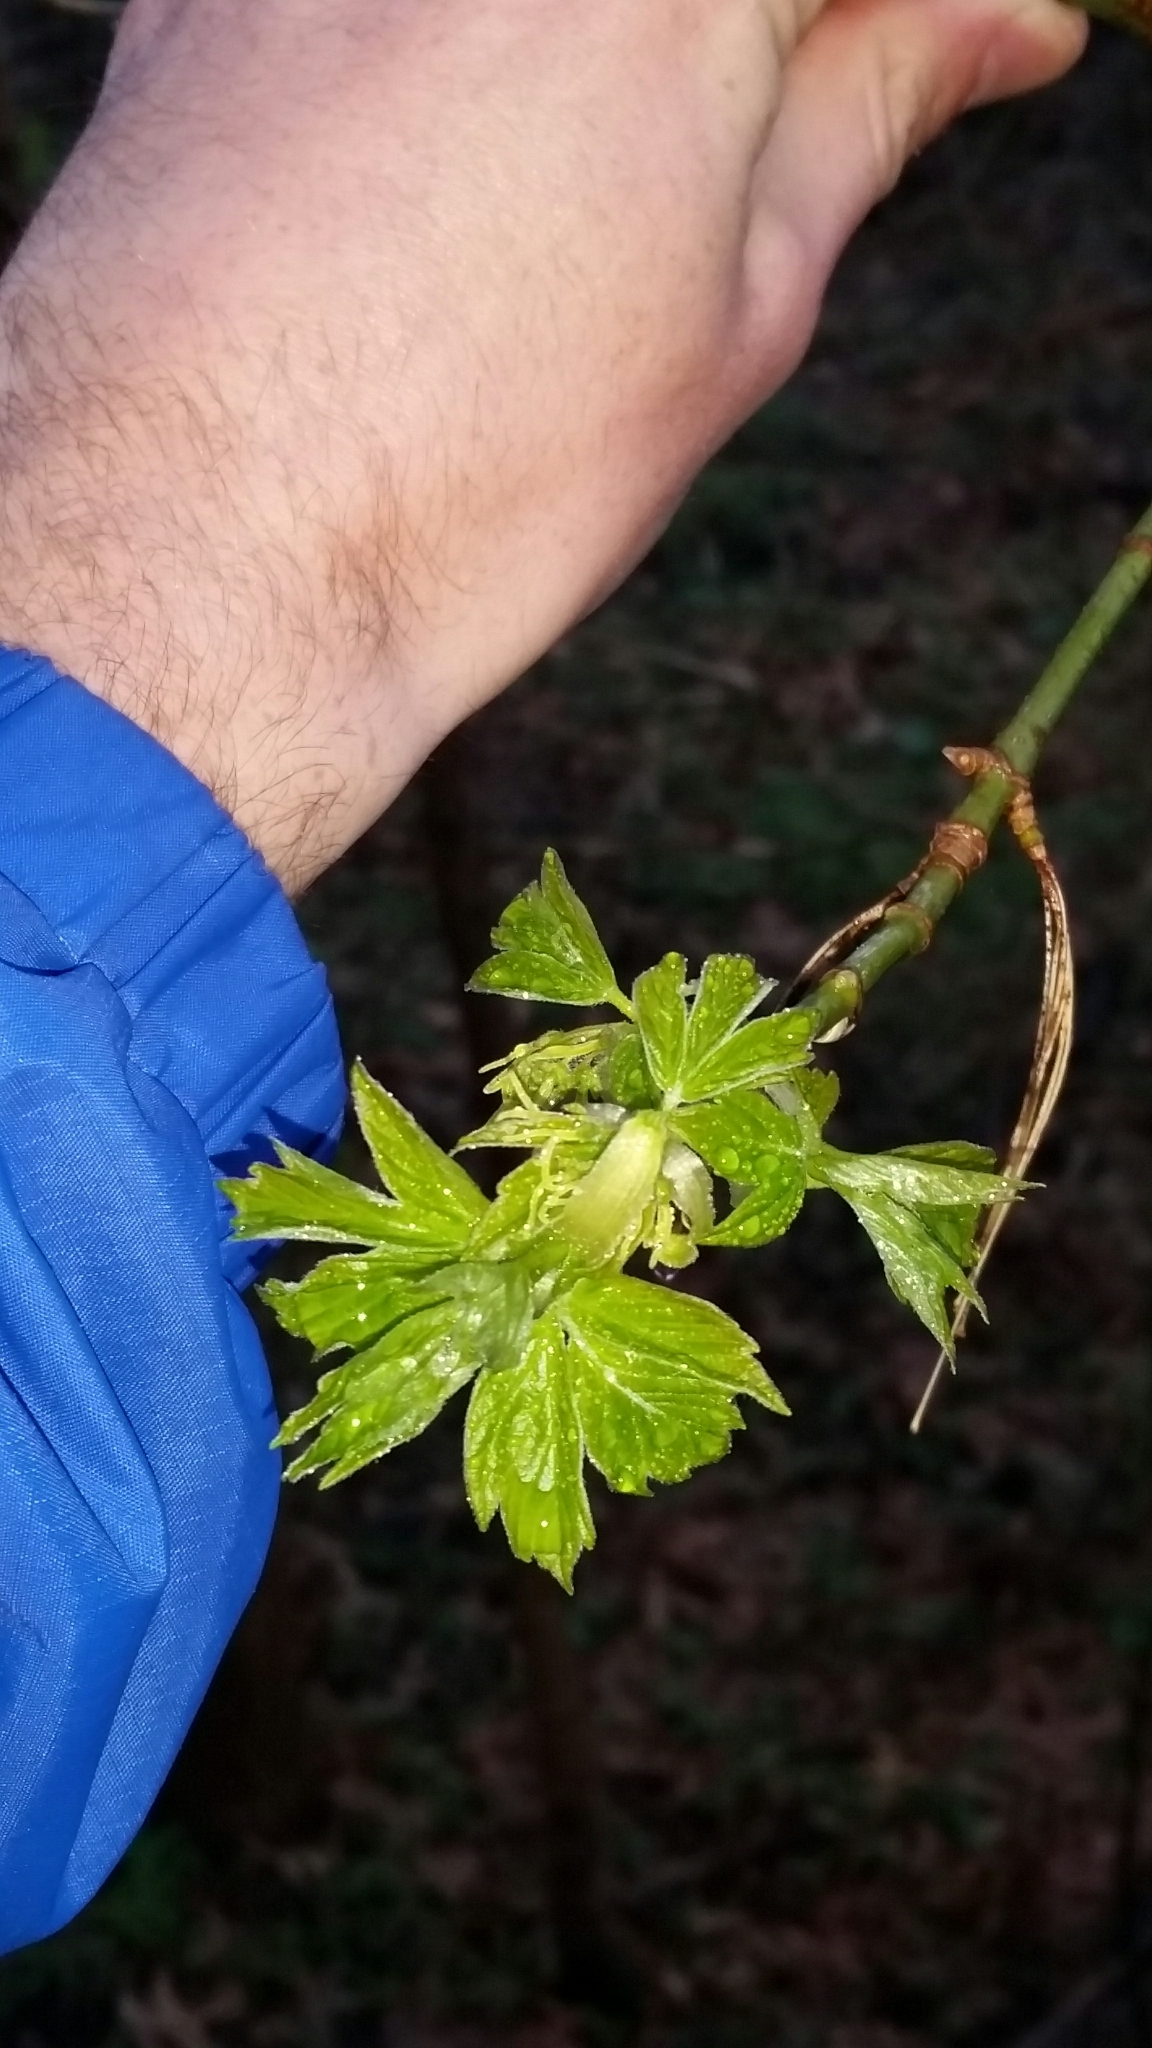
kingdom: Plantae
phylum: Tracheophyta
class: Magnoliopsida
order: Sapindales
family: Sapindaceae
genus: Acer
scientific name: Acer negundo
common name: Ashleaf maple
